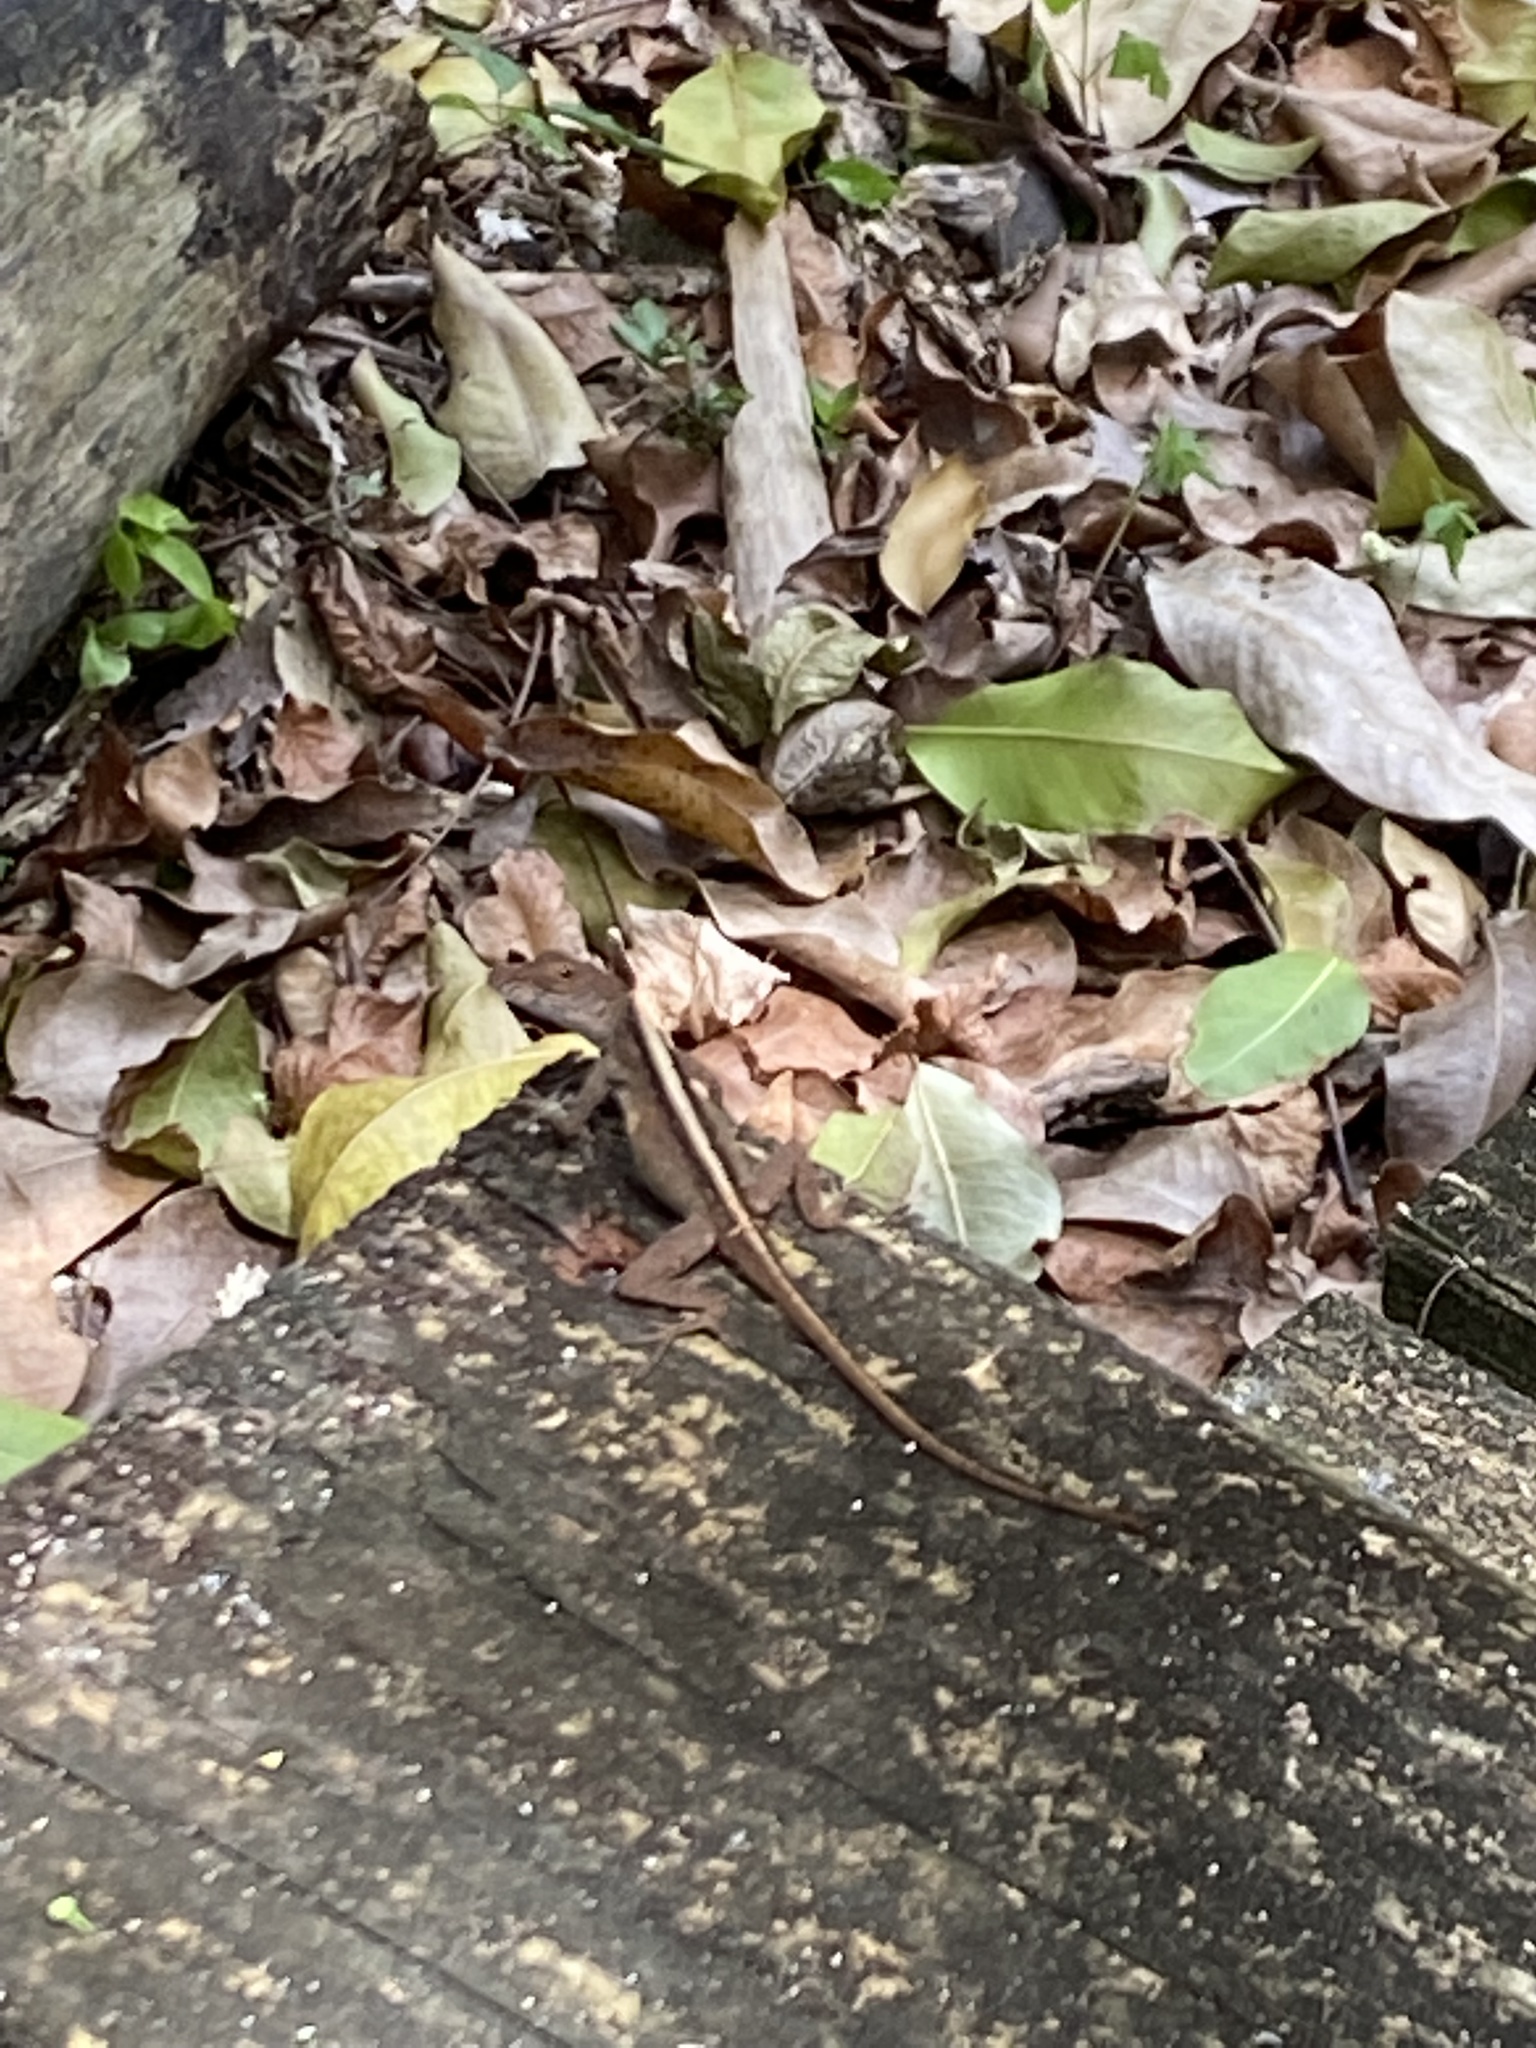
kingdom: Animalia
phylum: Chordata
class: Squamata
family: Dactyloidae
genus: Anolis
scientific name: Anolis sagrei
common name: Brown anole
